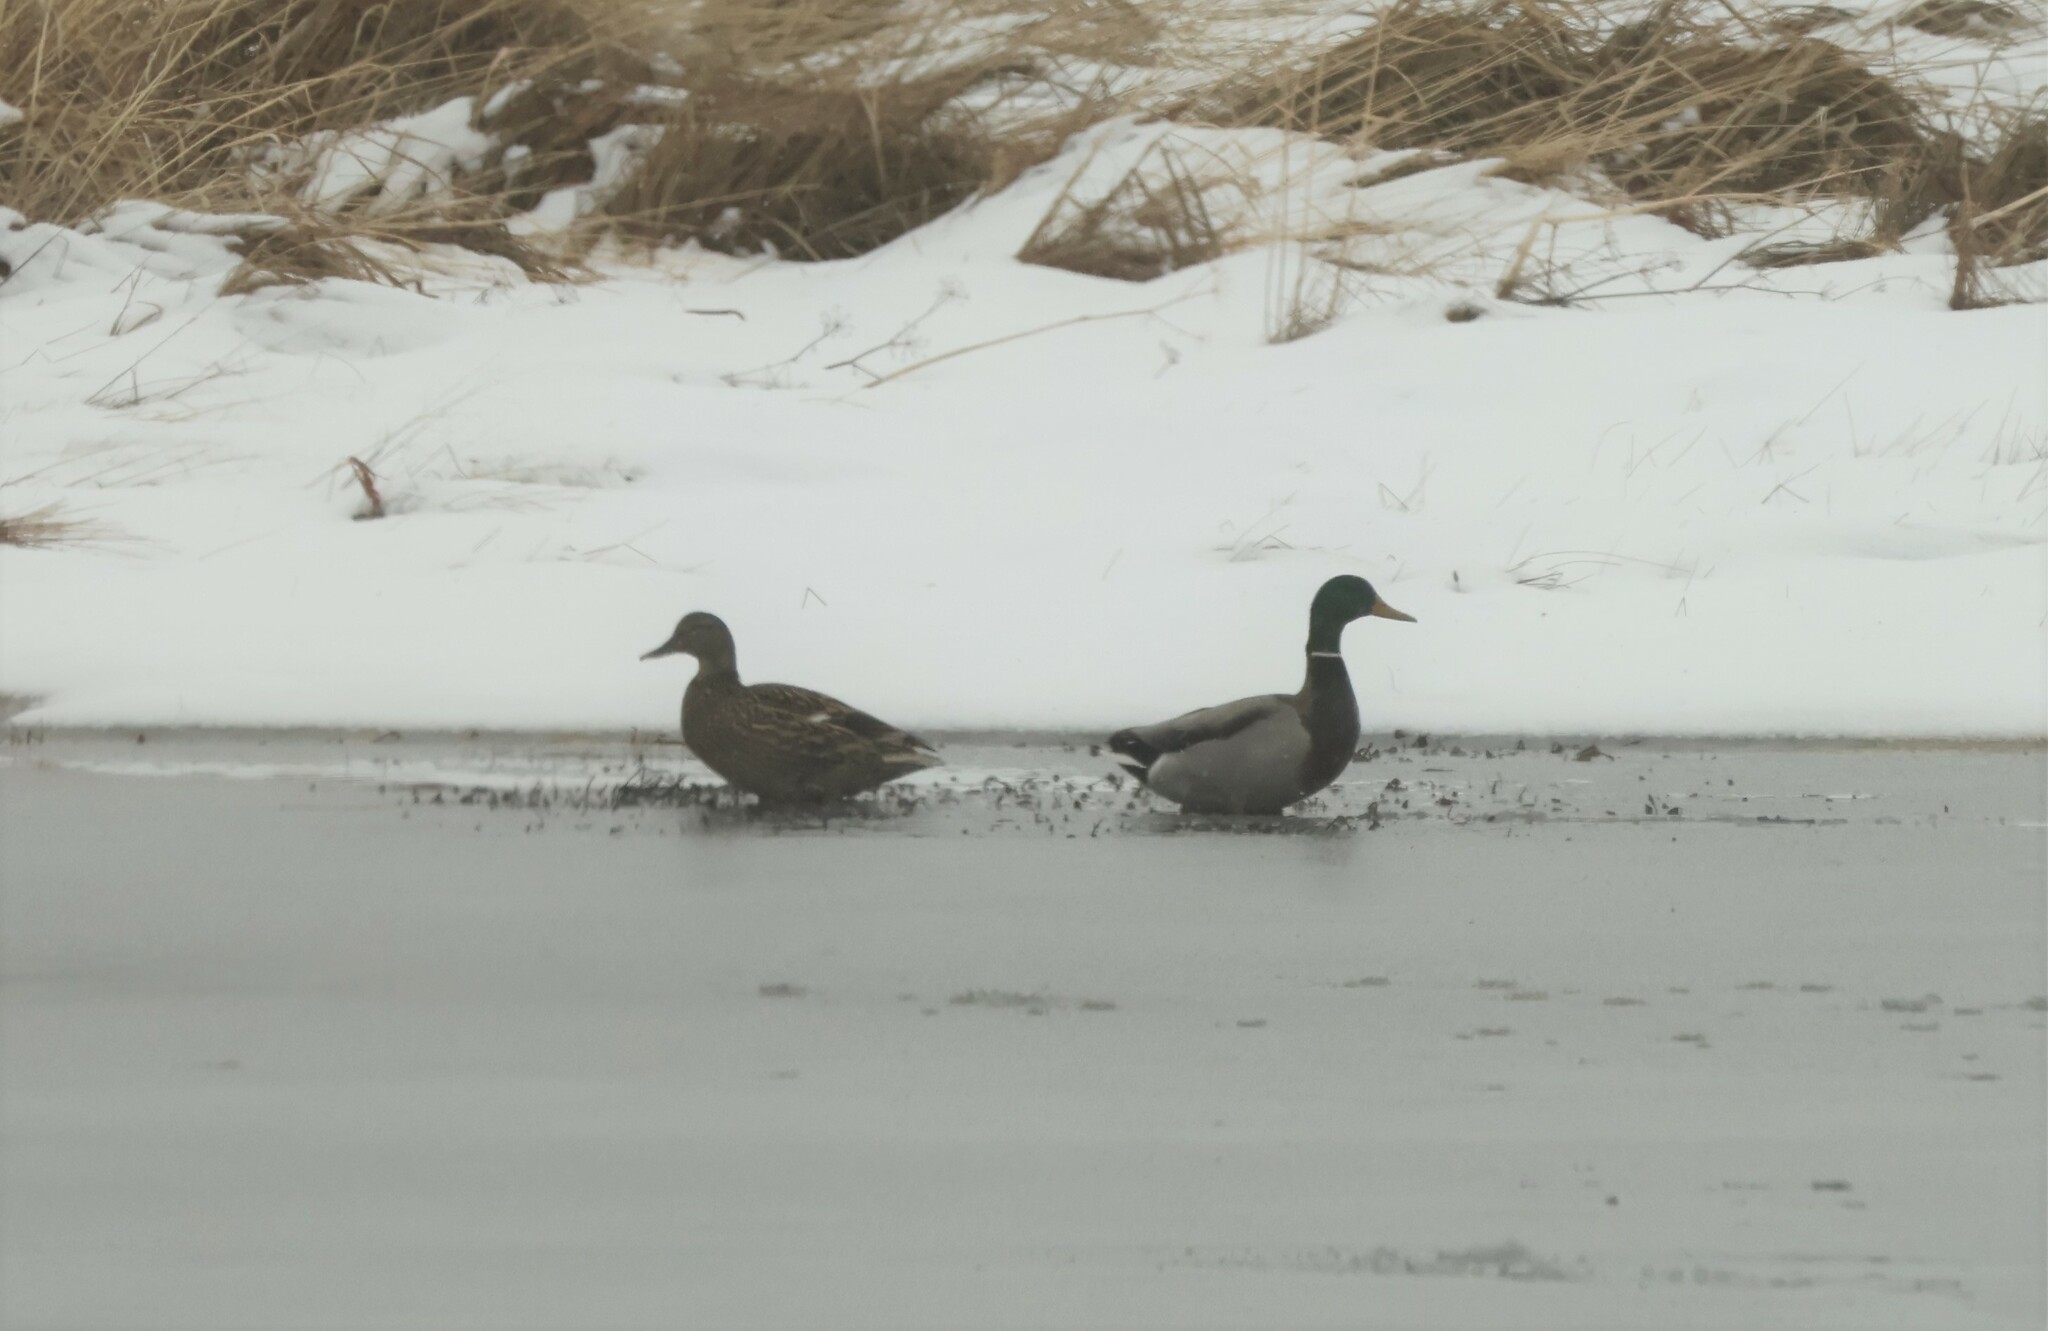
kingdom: Animalia
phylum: Chordata
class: Aves
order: Anseriformes
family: Anatidae
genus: Anas
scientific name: Anas platyrhynchos
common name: Mallard
